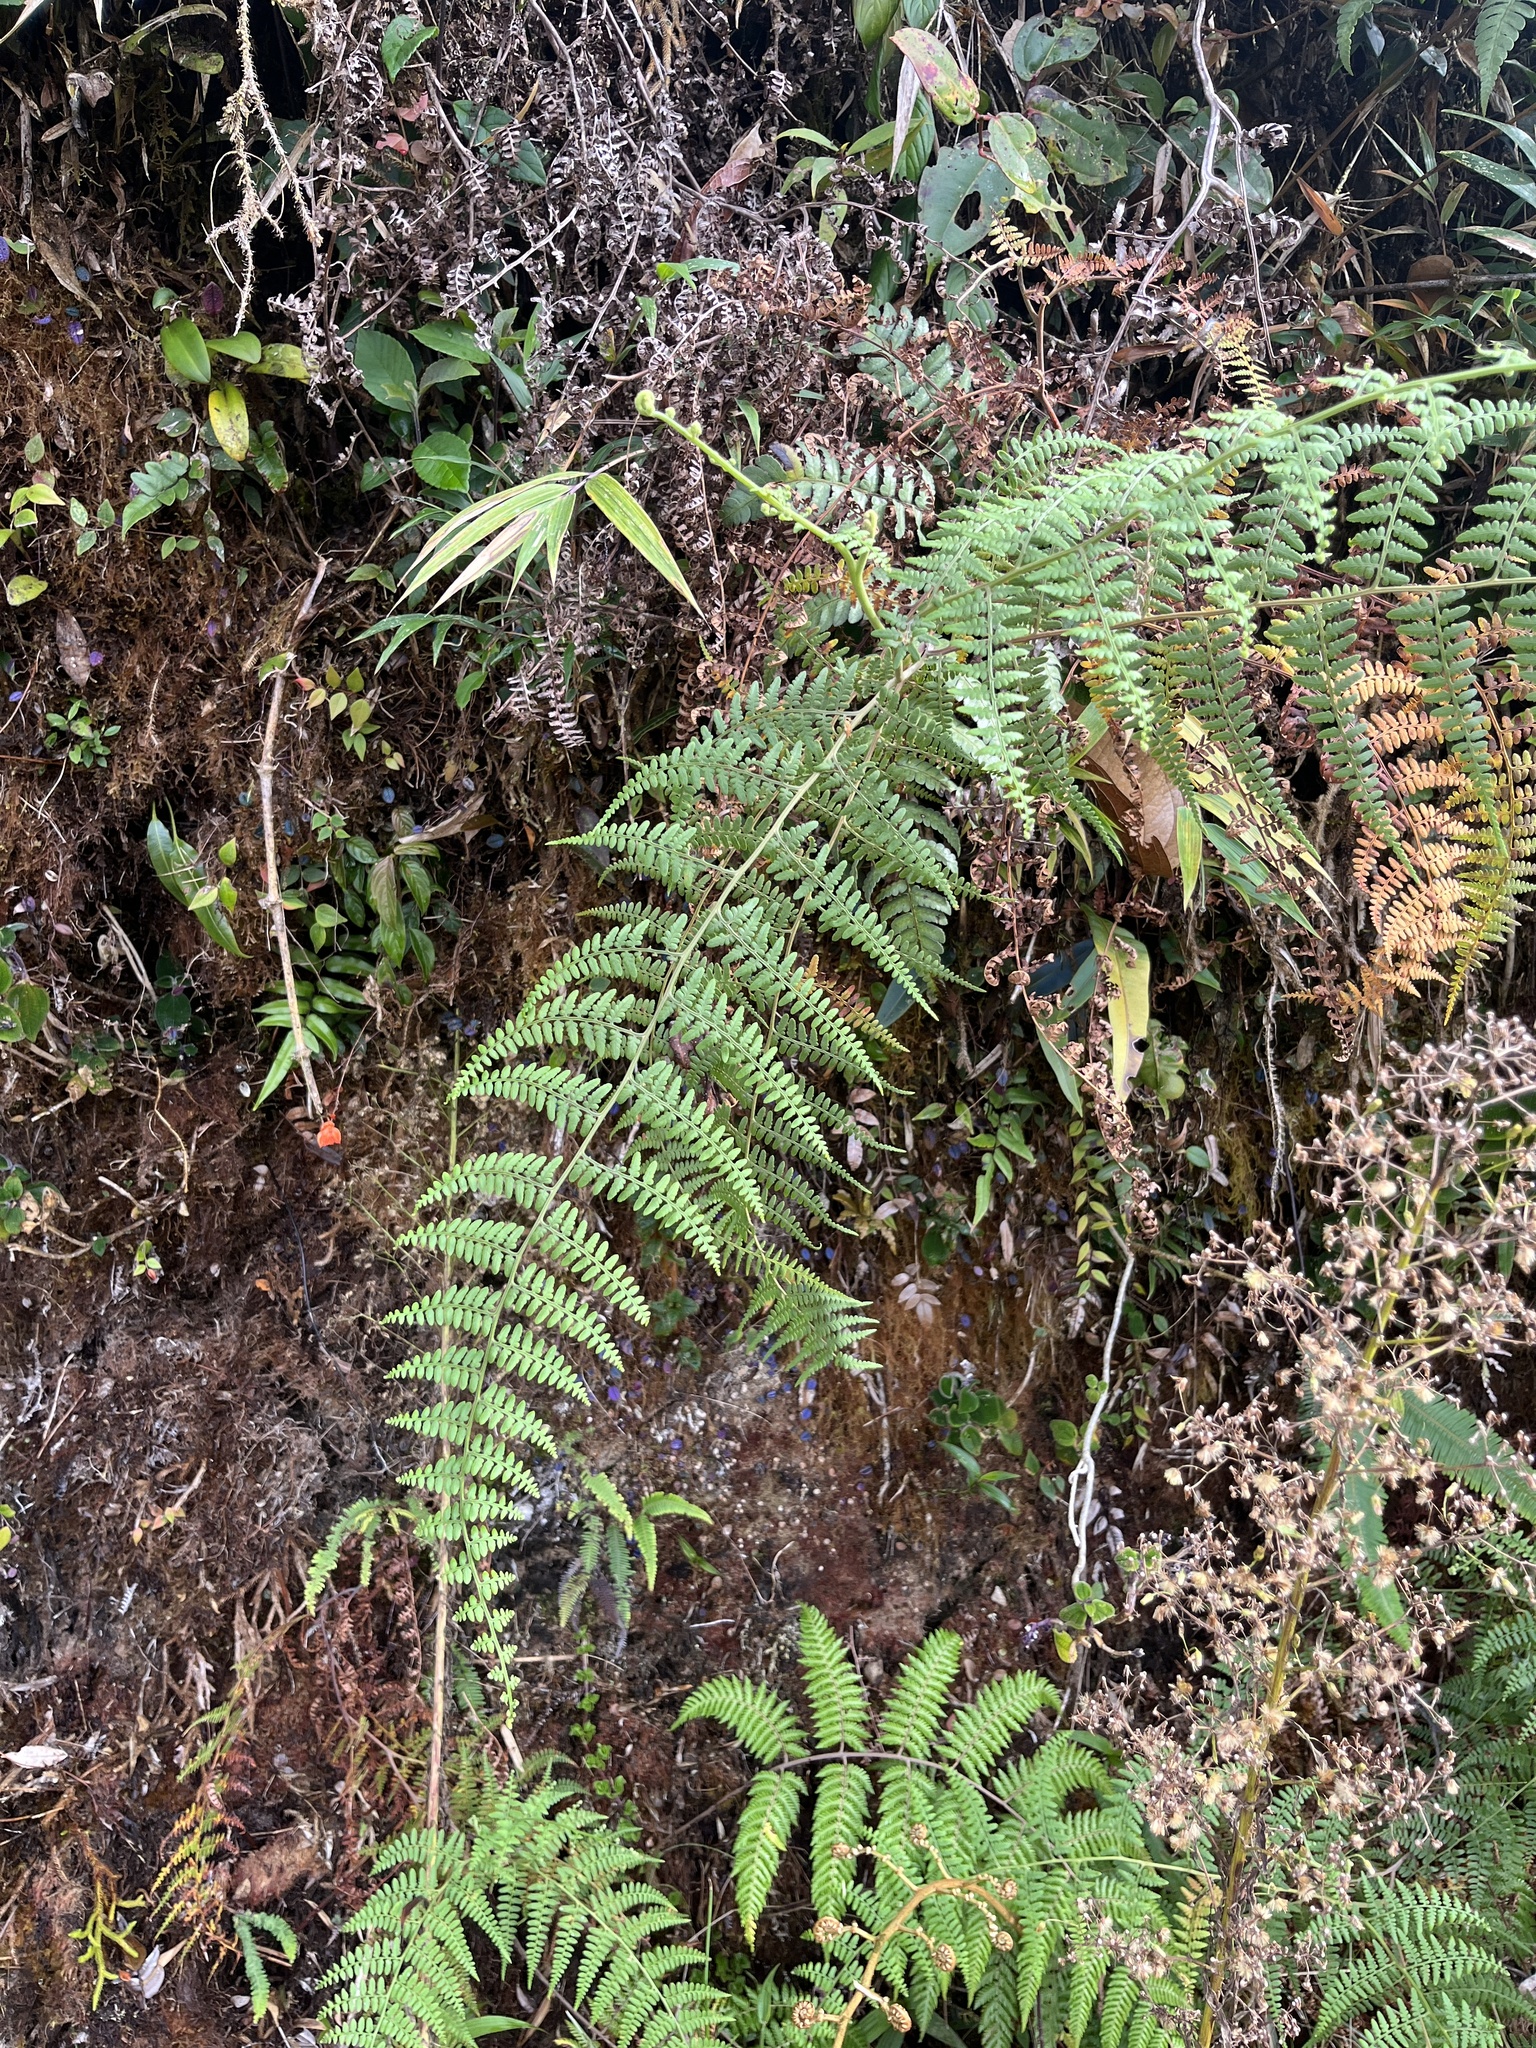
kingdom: Plantae
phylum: Tracheophyta
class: Polypodiopsida
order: Polypodiales
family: Dennstaedtiaceae
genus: Paesia
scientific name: Paesia glandulosa
